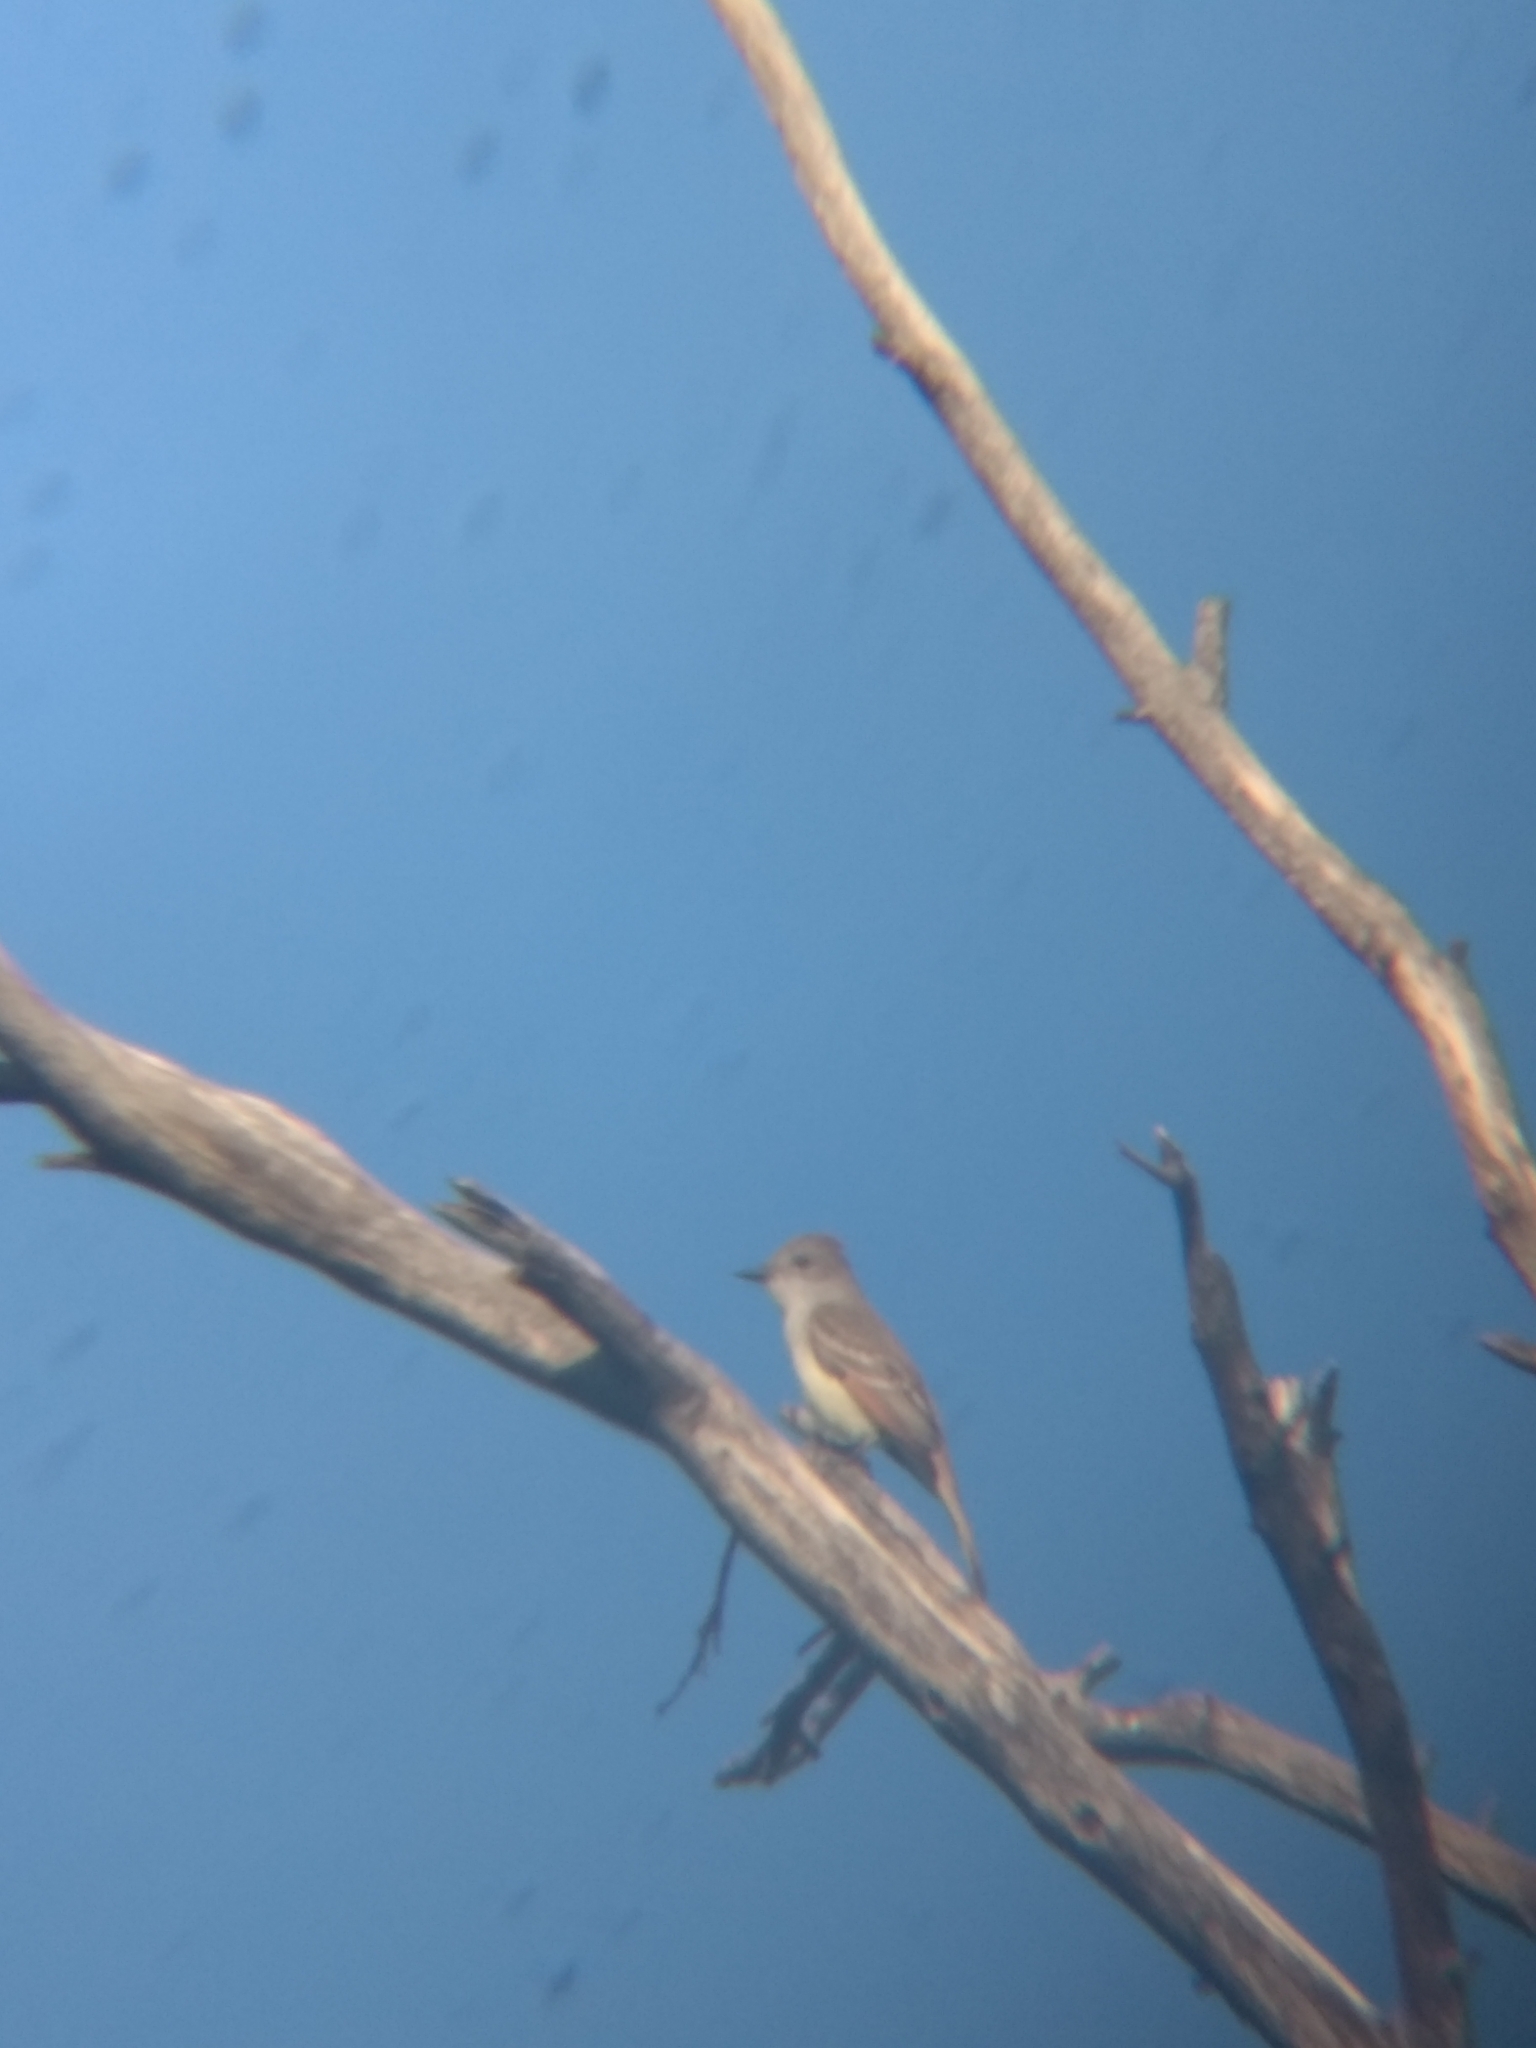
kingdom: Animalia
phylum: Chordata
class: Aves
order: Passeriformes
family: Tyrannidae
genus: Myiarchus
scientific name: Myiarchus cinerascens
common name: Ash-throated flycatcher
